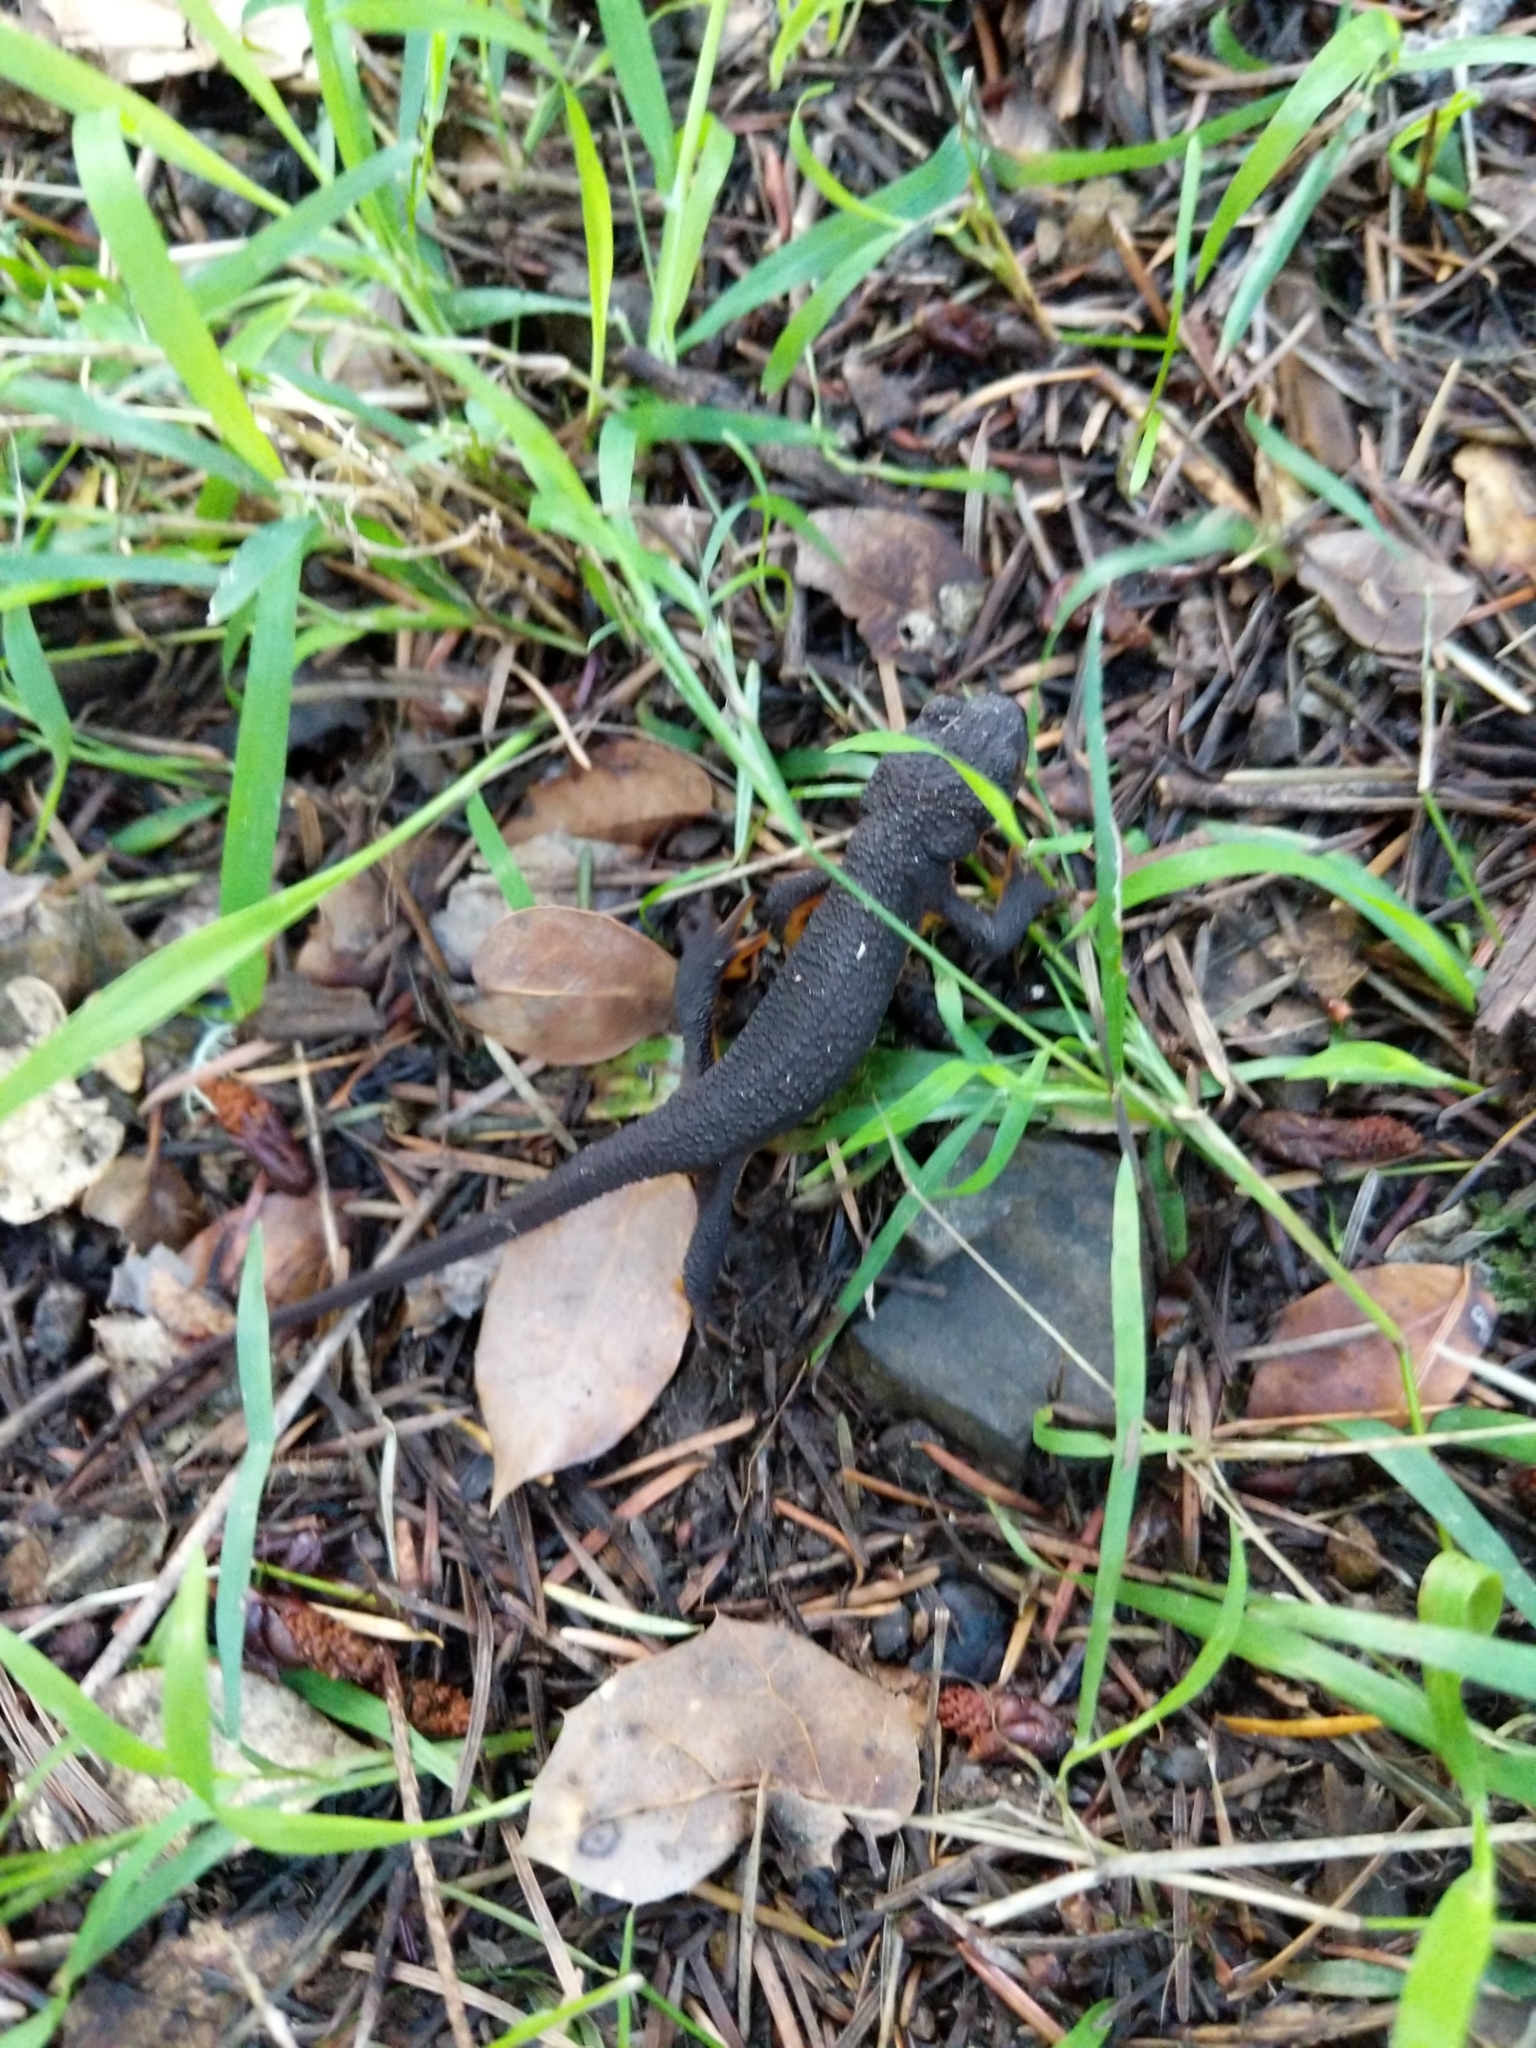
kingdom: Animalia
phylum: Chordata
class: Amphibia
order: Caudata
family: Salamandridae
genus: Taricha
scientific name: Taricha granulosa
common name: Roughskin newt
